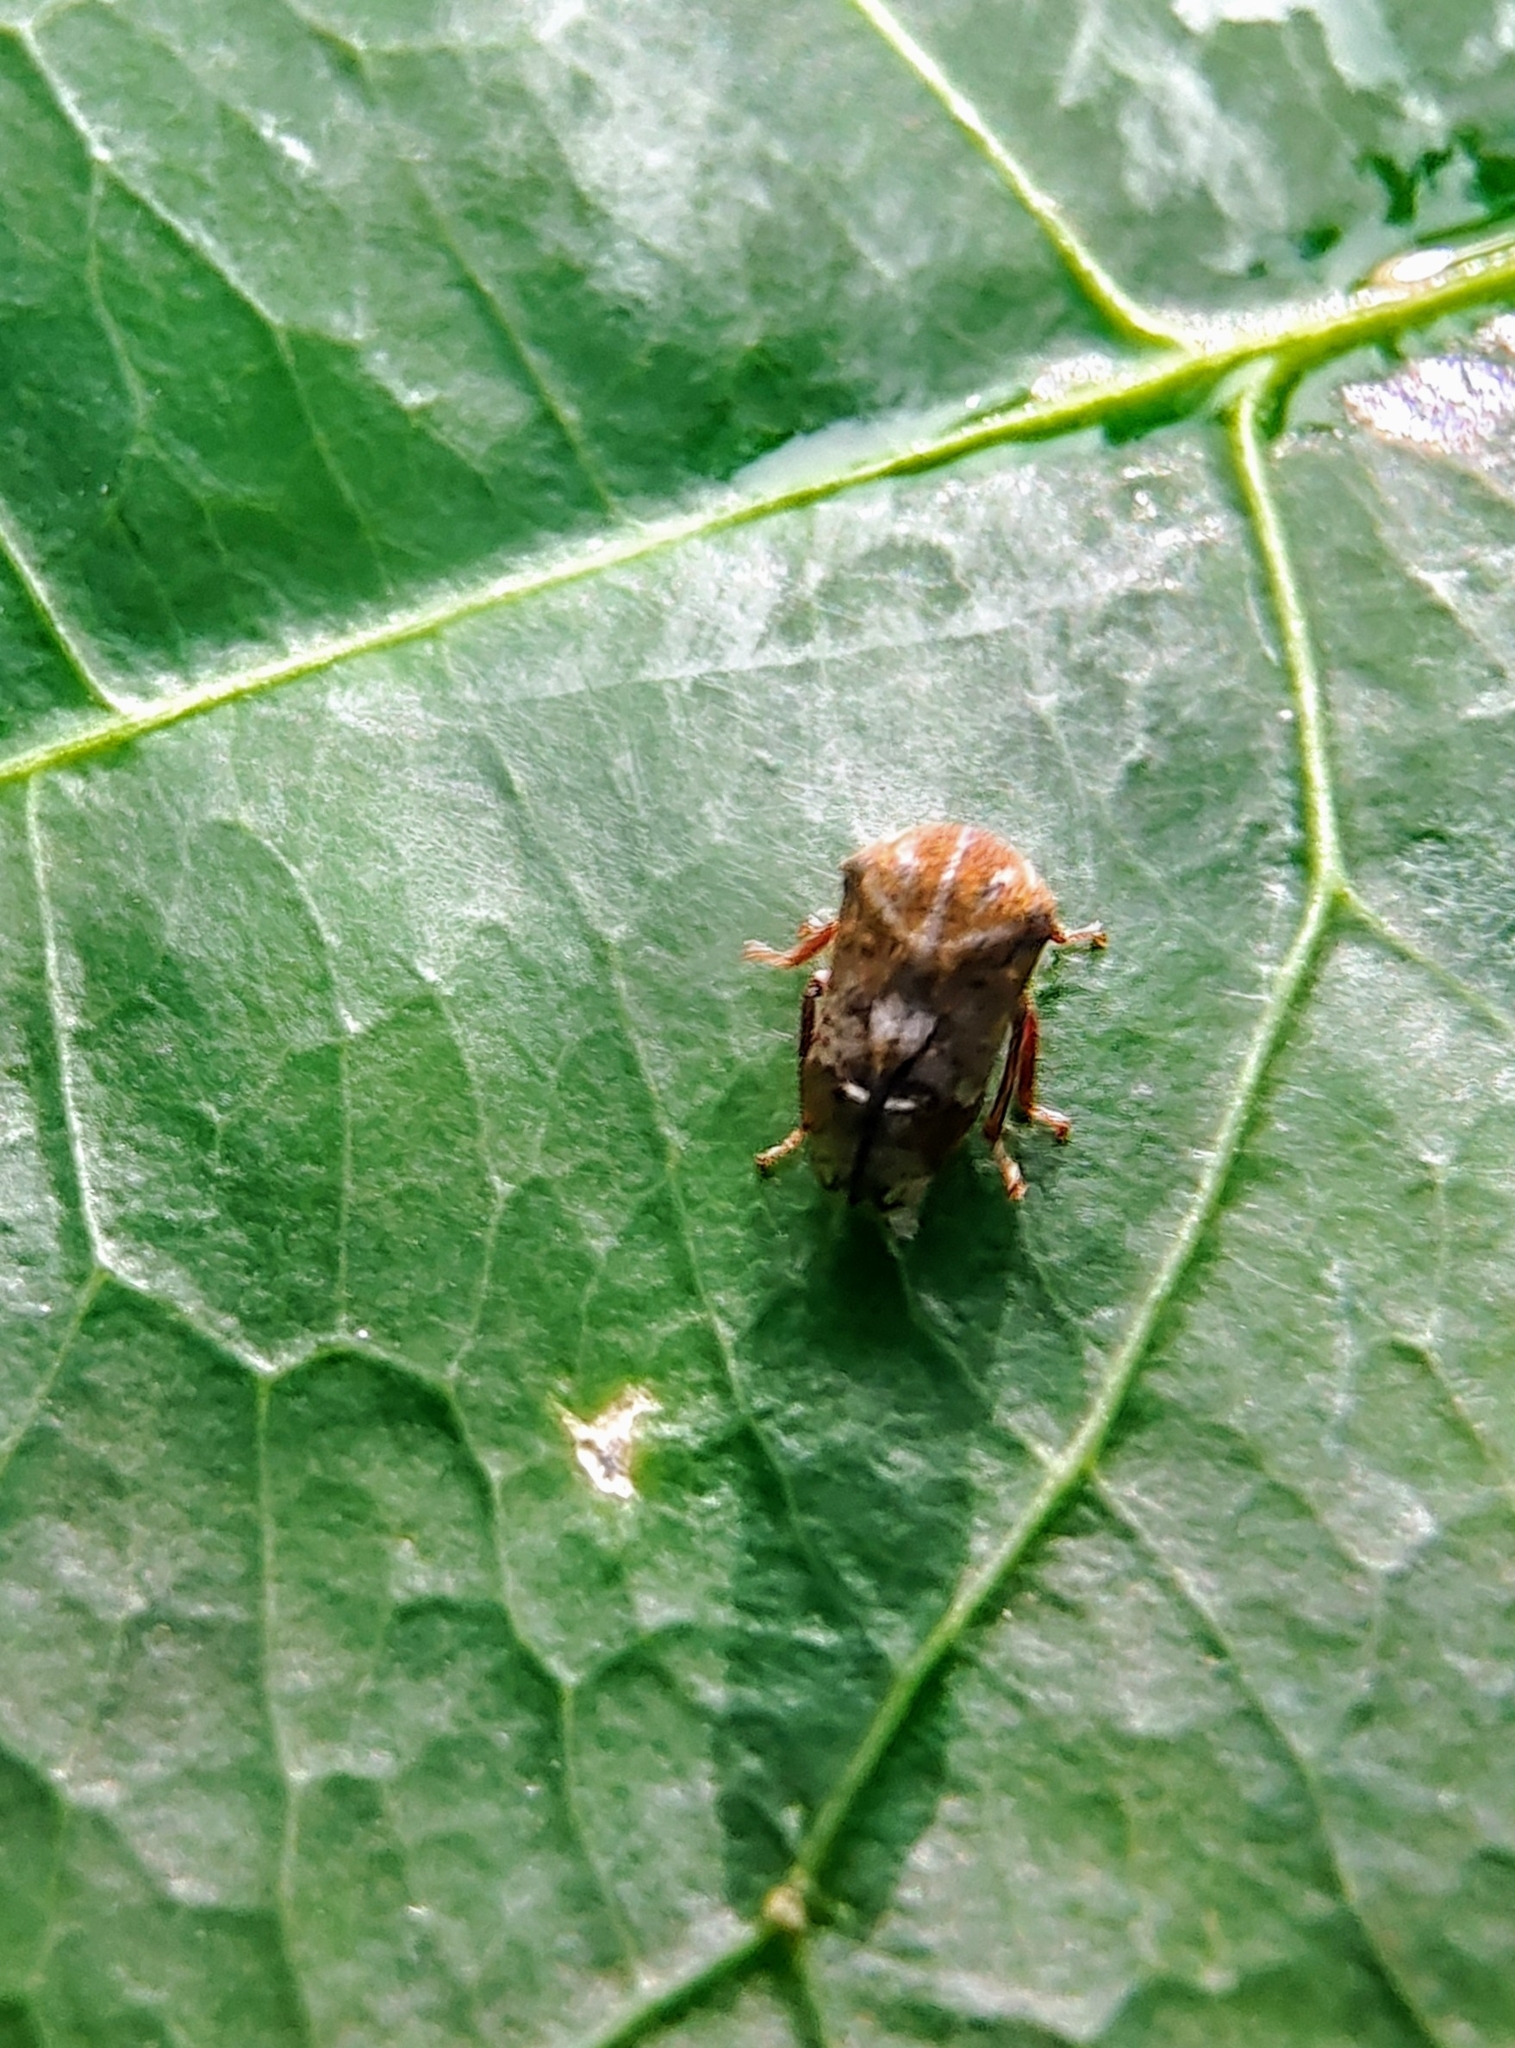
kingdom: Animalia
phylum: Arthropoda
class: Insecta
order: Hemiptera
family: Membracidae
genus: Gargara
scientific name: Gargara rubrogranulata
